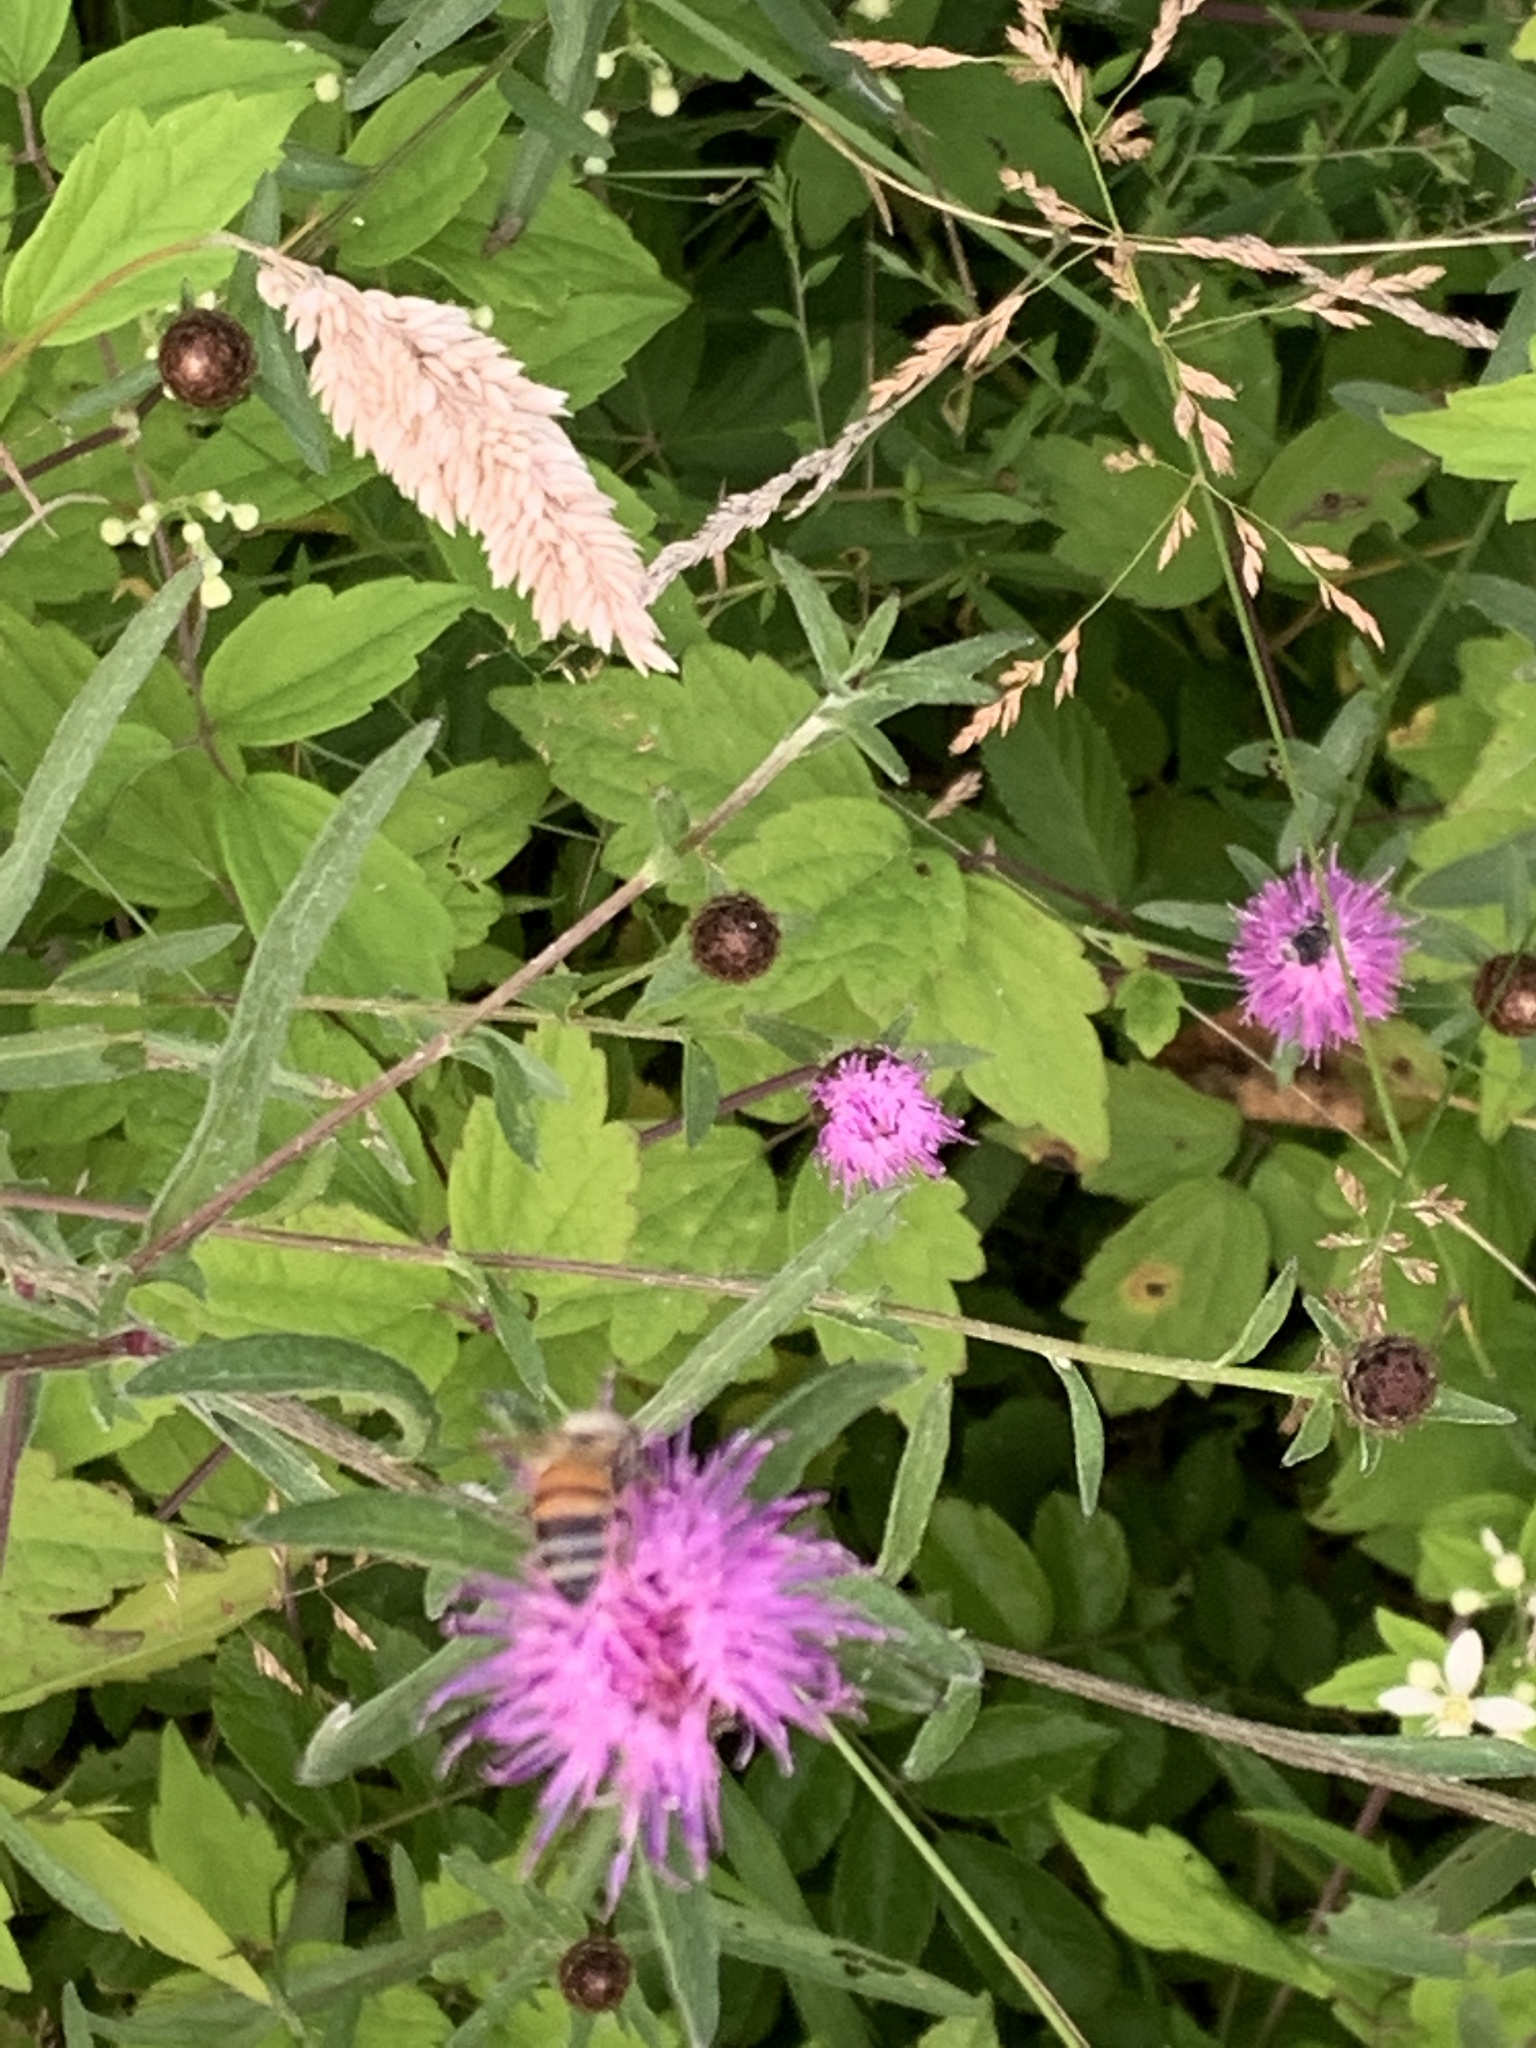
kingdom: Animalia
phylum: Arthropoda
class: Insecta
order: Hymenoptera
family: Apidae
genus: Apis
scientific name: Apis mellifera
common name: Honey bee
